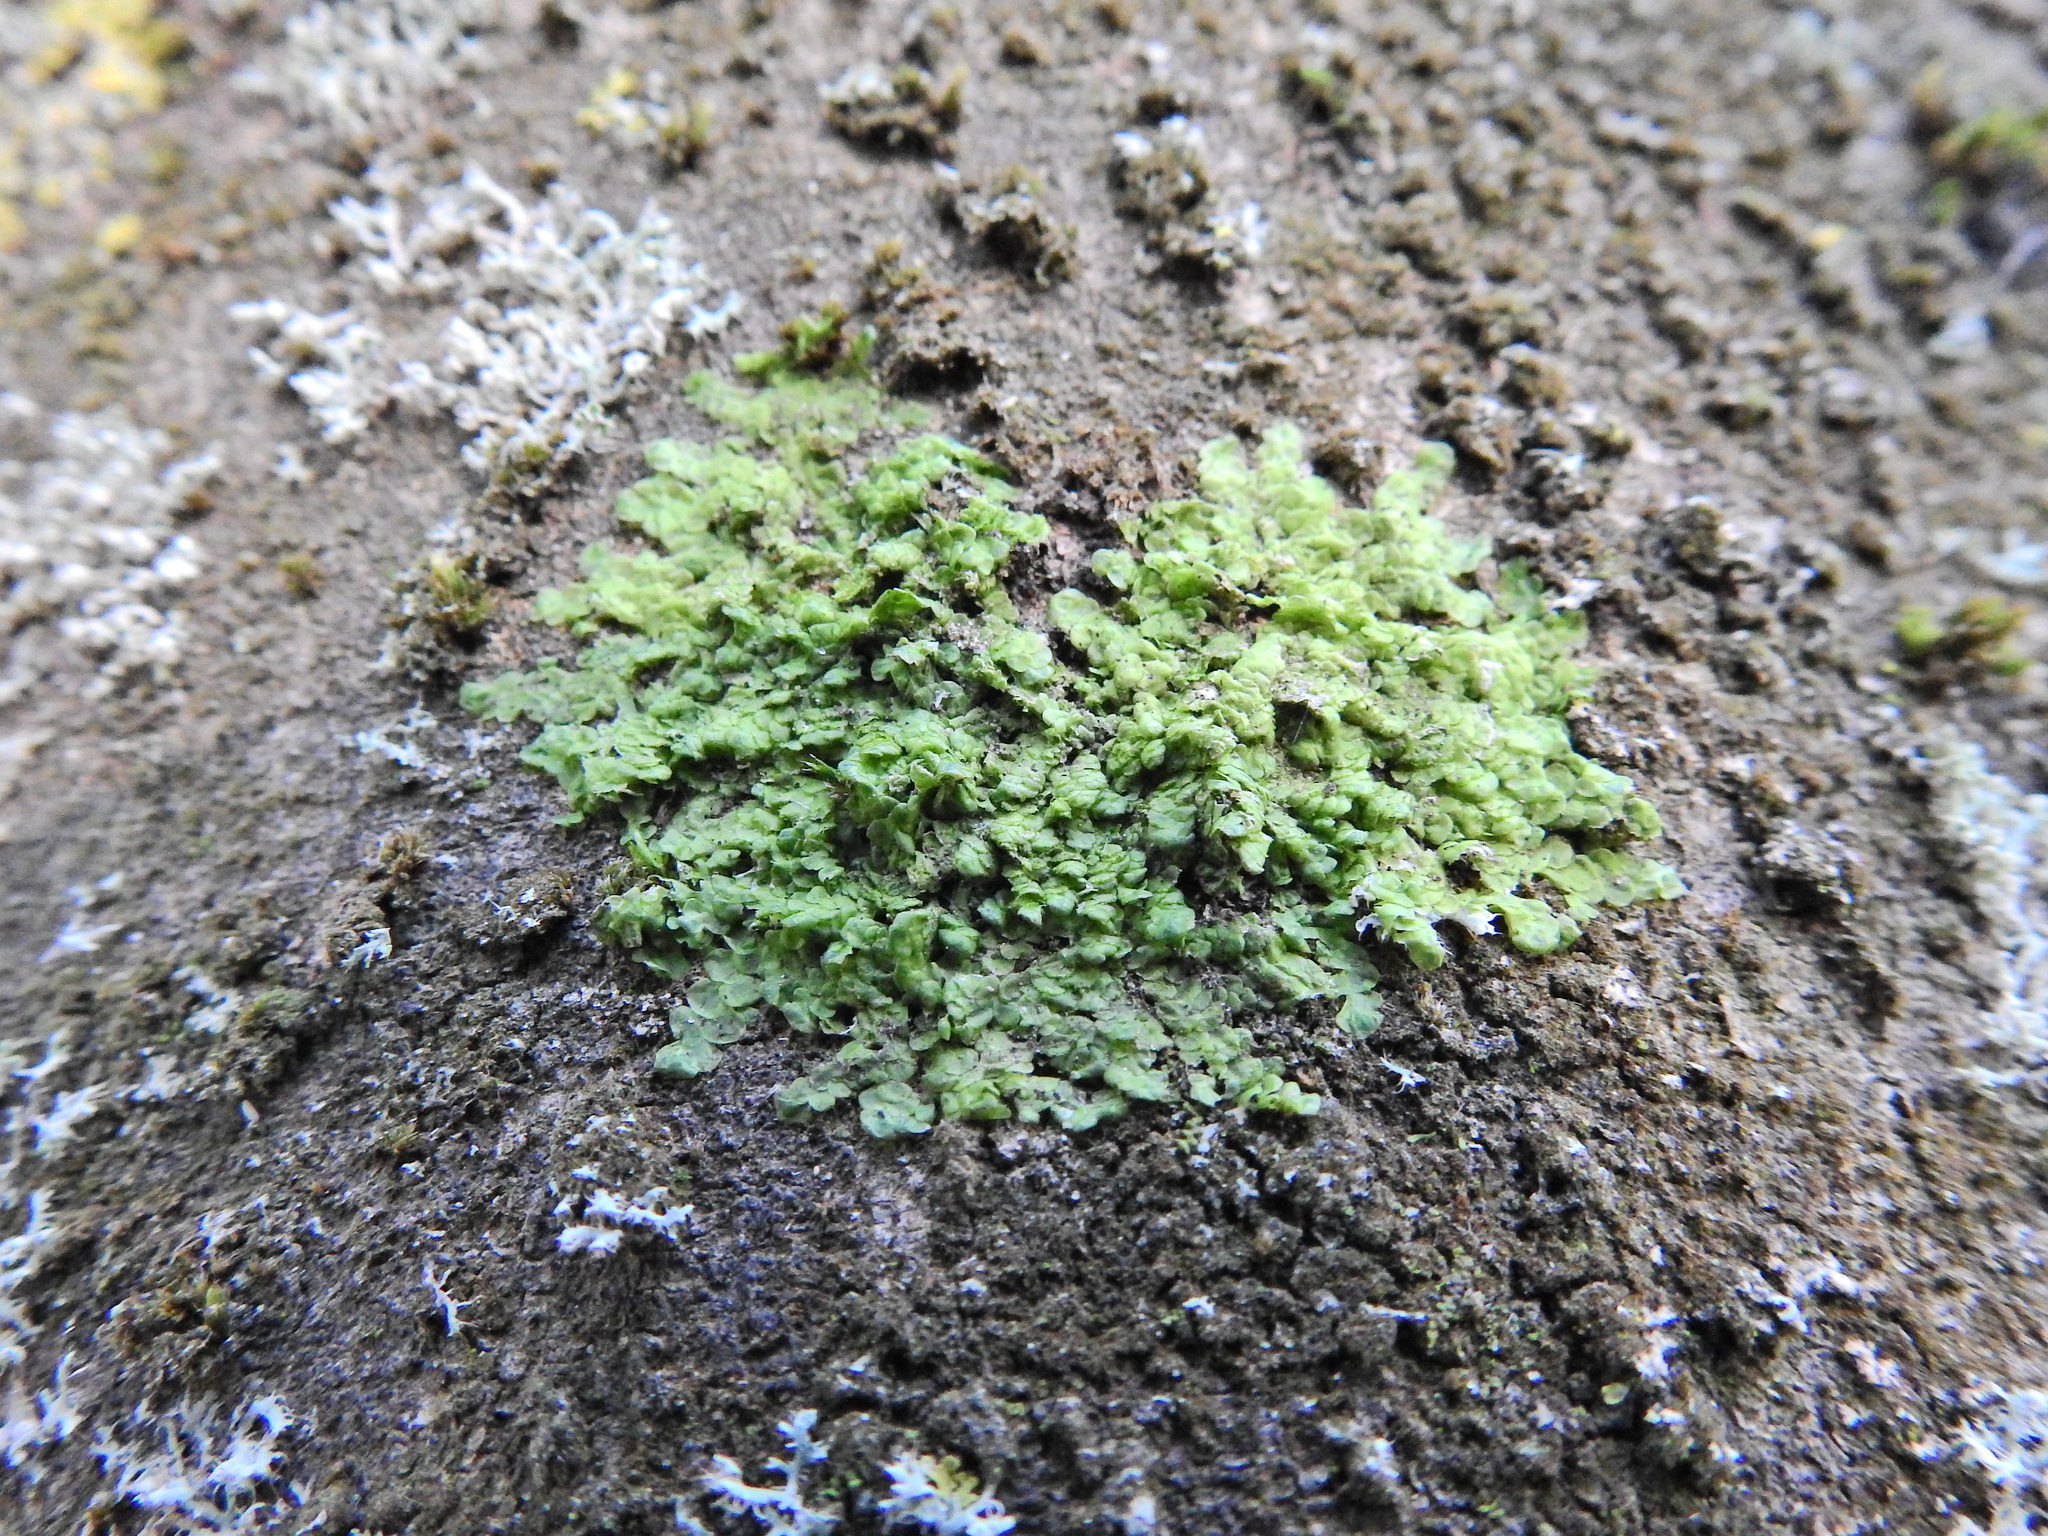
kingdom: Plantae
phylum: Marchantiophyta
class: Jungermanniopsida
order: Porellales
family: Radulaceae
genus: Radula
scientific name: Radula complanata
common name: Flat-leaved scalewort
